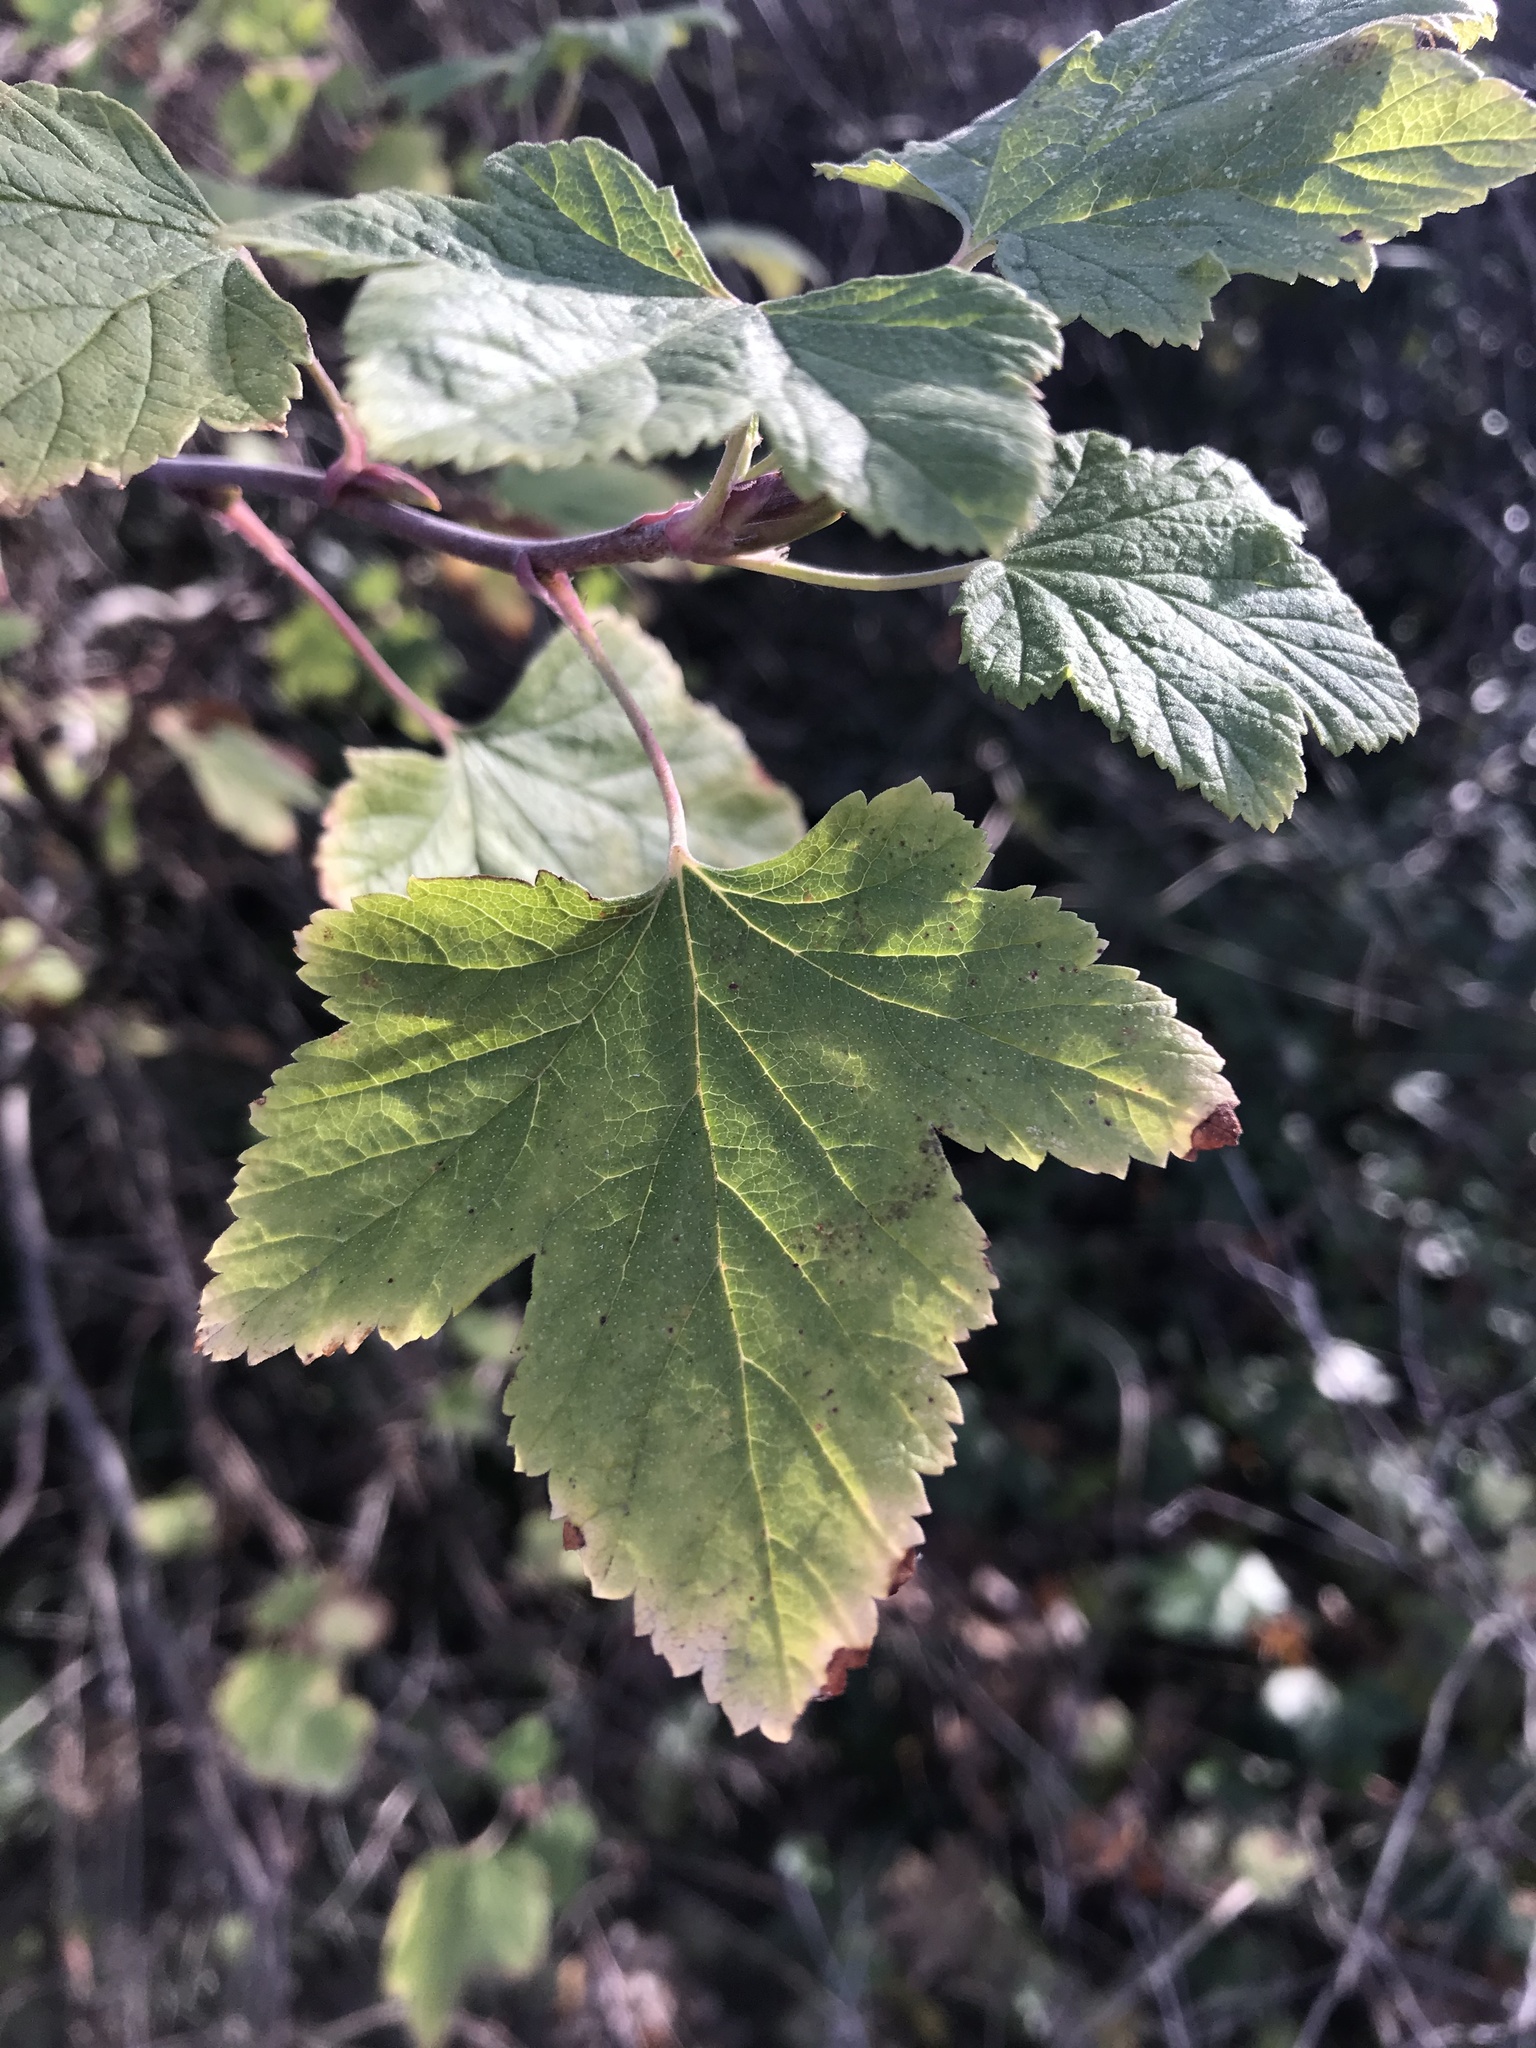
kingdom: Plantae
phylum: Tracheophyta
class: Magnoliopsida
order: Saxifragales
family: Grossulariaceae
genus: Ribes
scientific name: Ribes sanguineum
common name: Flowering currant
